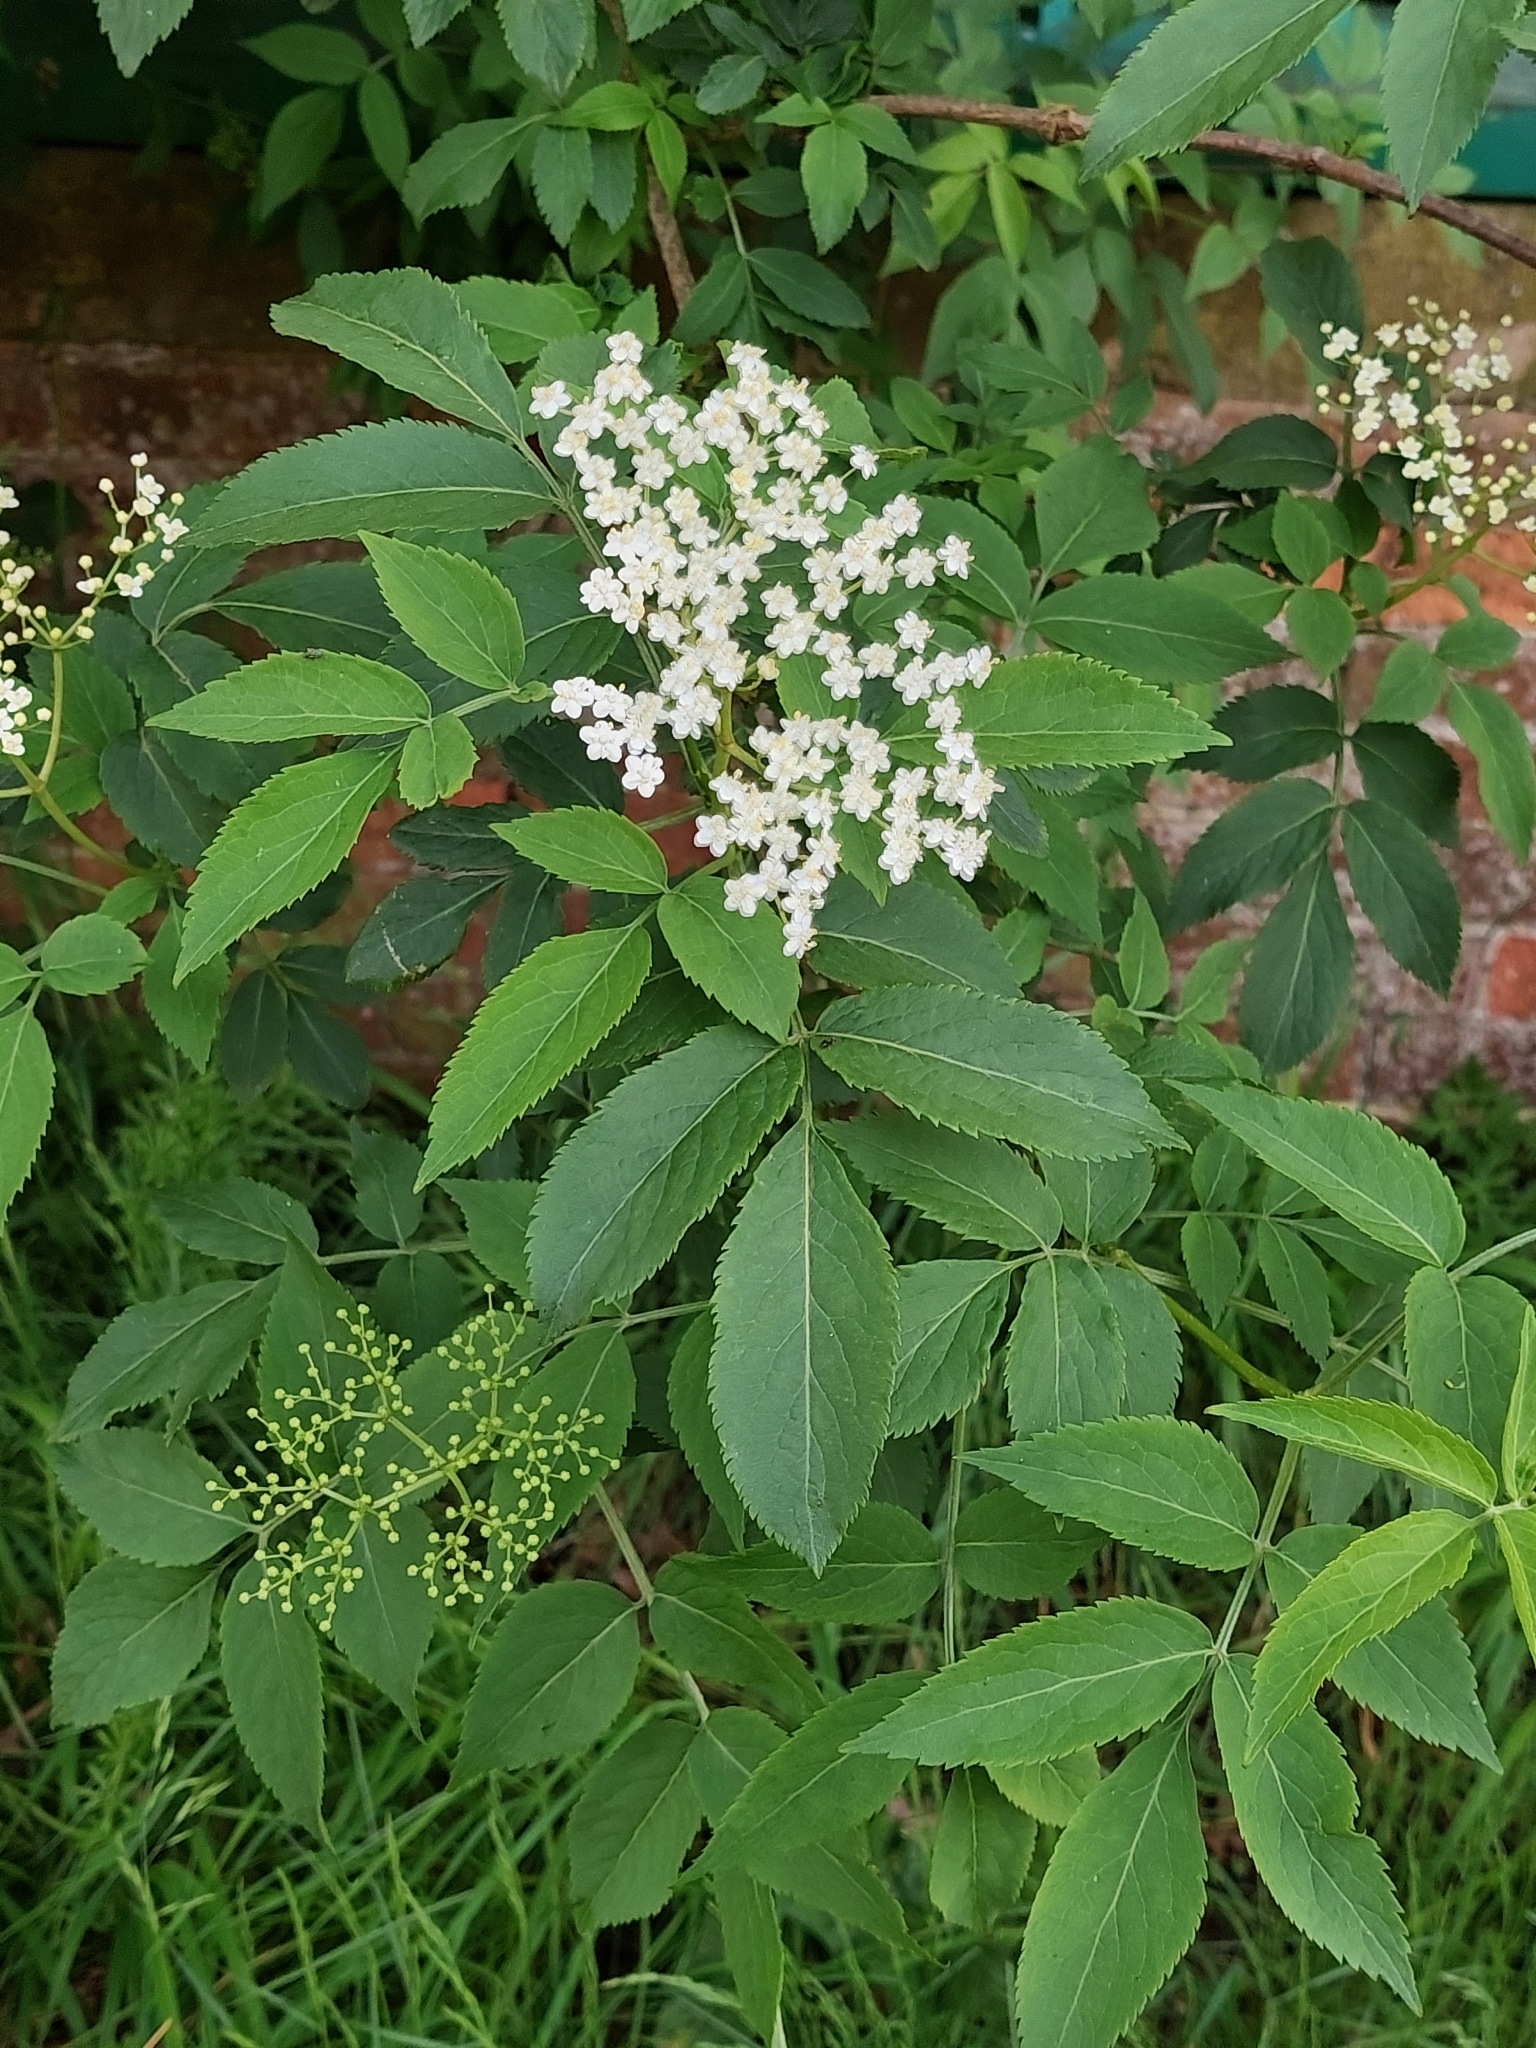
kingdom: Plantae
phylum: Tracheophyta
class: Magnoliopsida
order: Dipsacales
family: Viburnaceae
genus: Sambucus
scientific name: Sambucus nigra
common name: Elder
